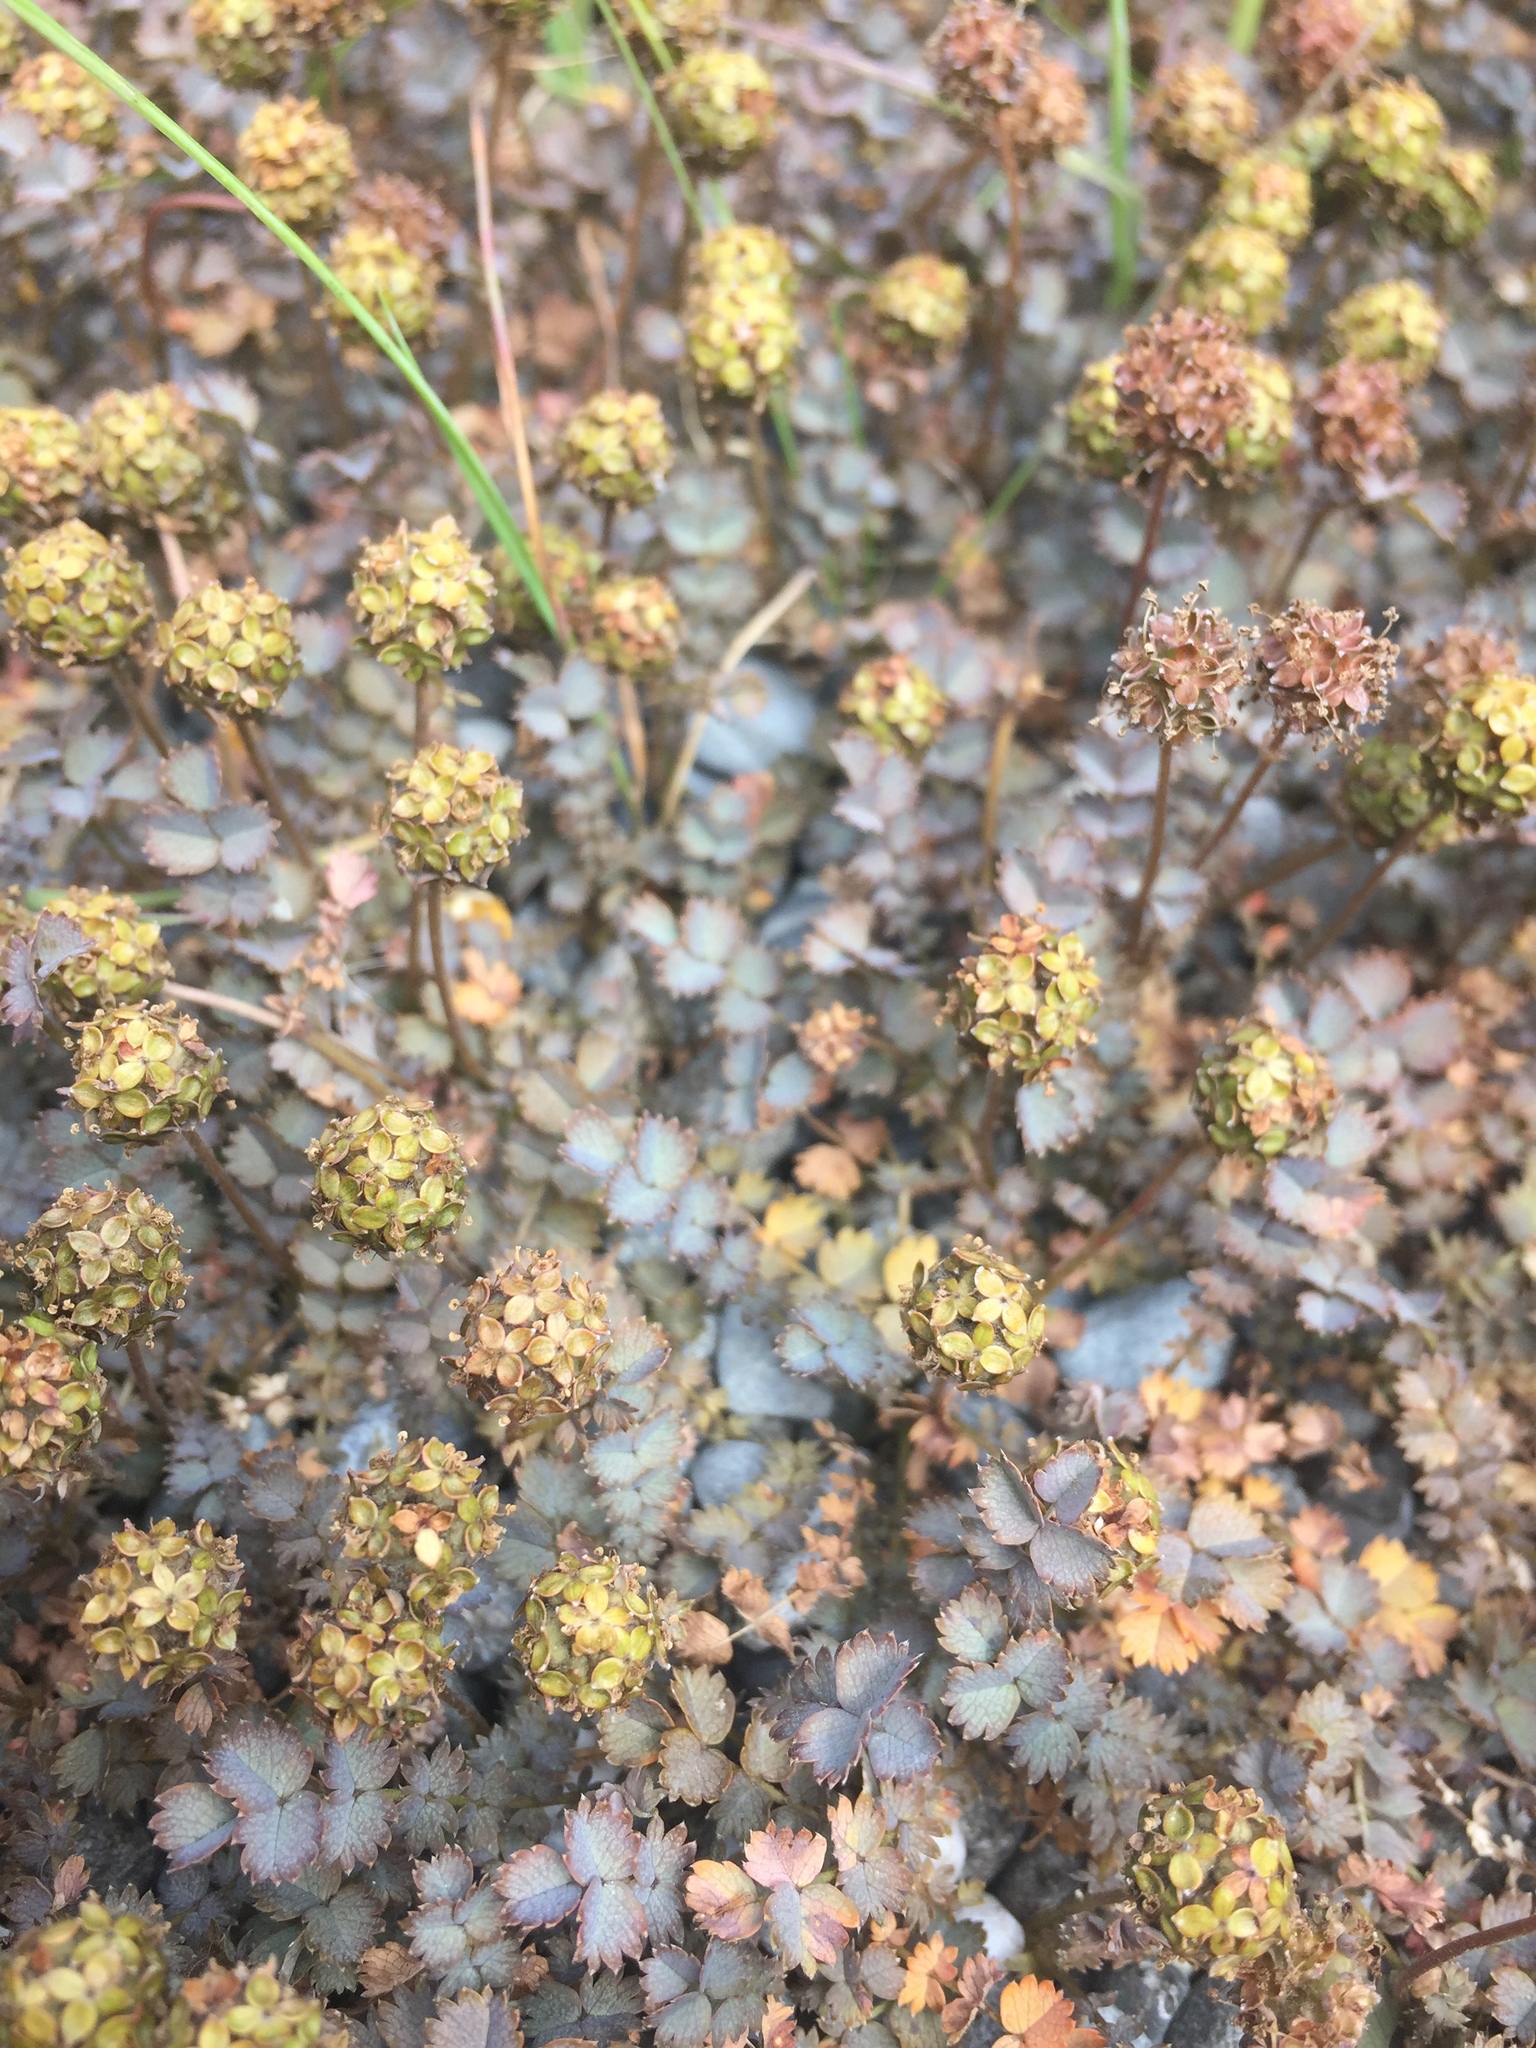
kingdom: Plantae
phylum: Tracheophyta
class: Magnoliopsida
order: Rosales
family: Rosaceae
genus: Acaena
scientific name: Acaena inermis
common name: Spineless acaena
